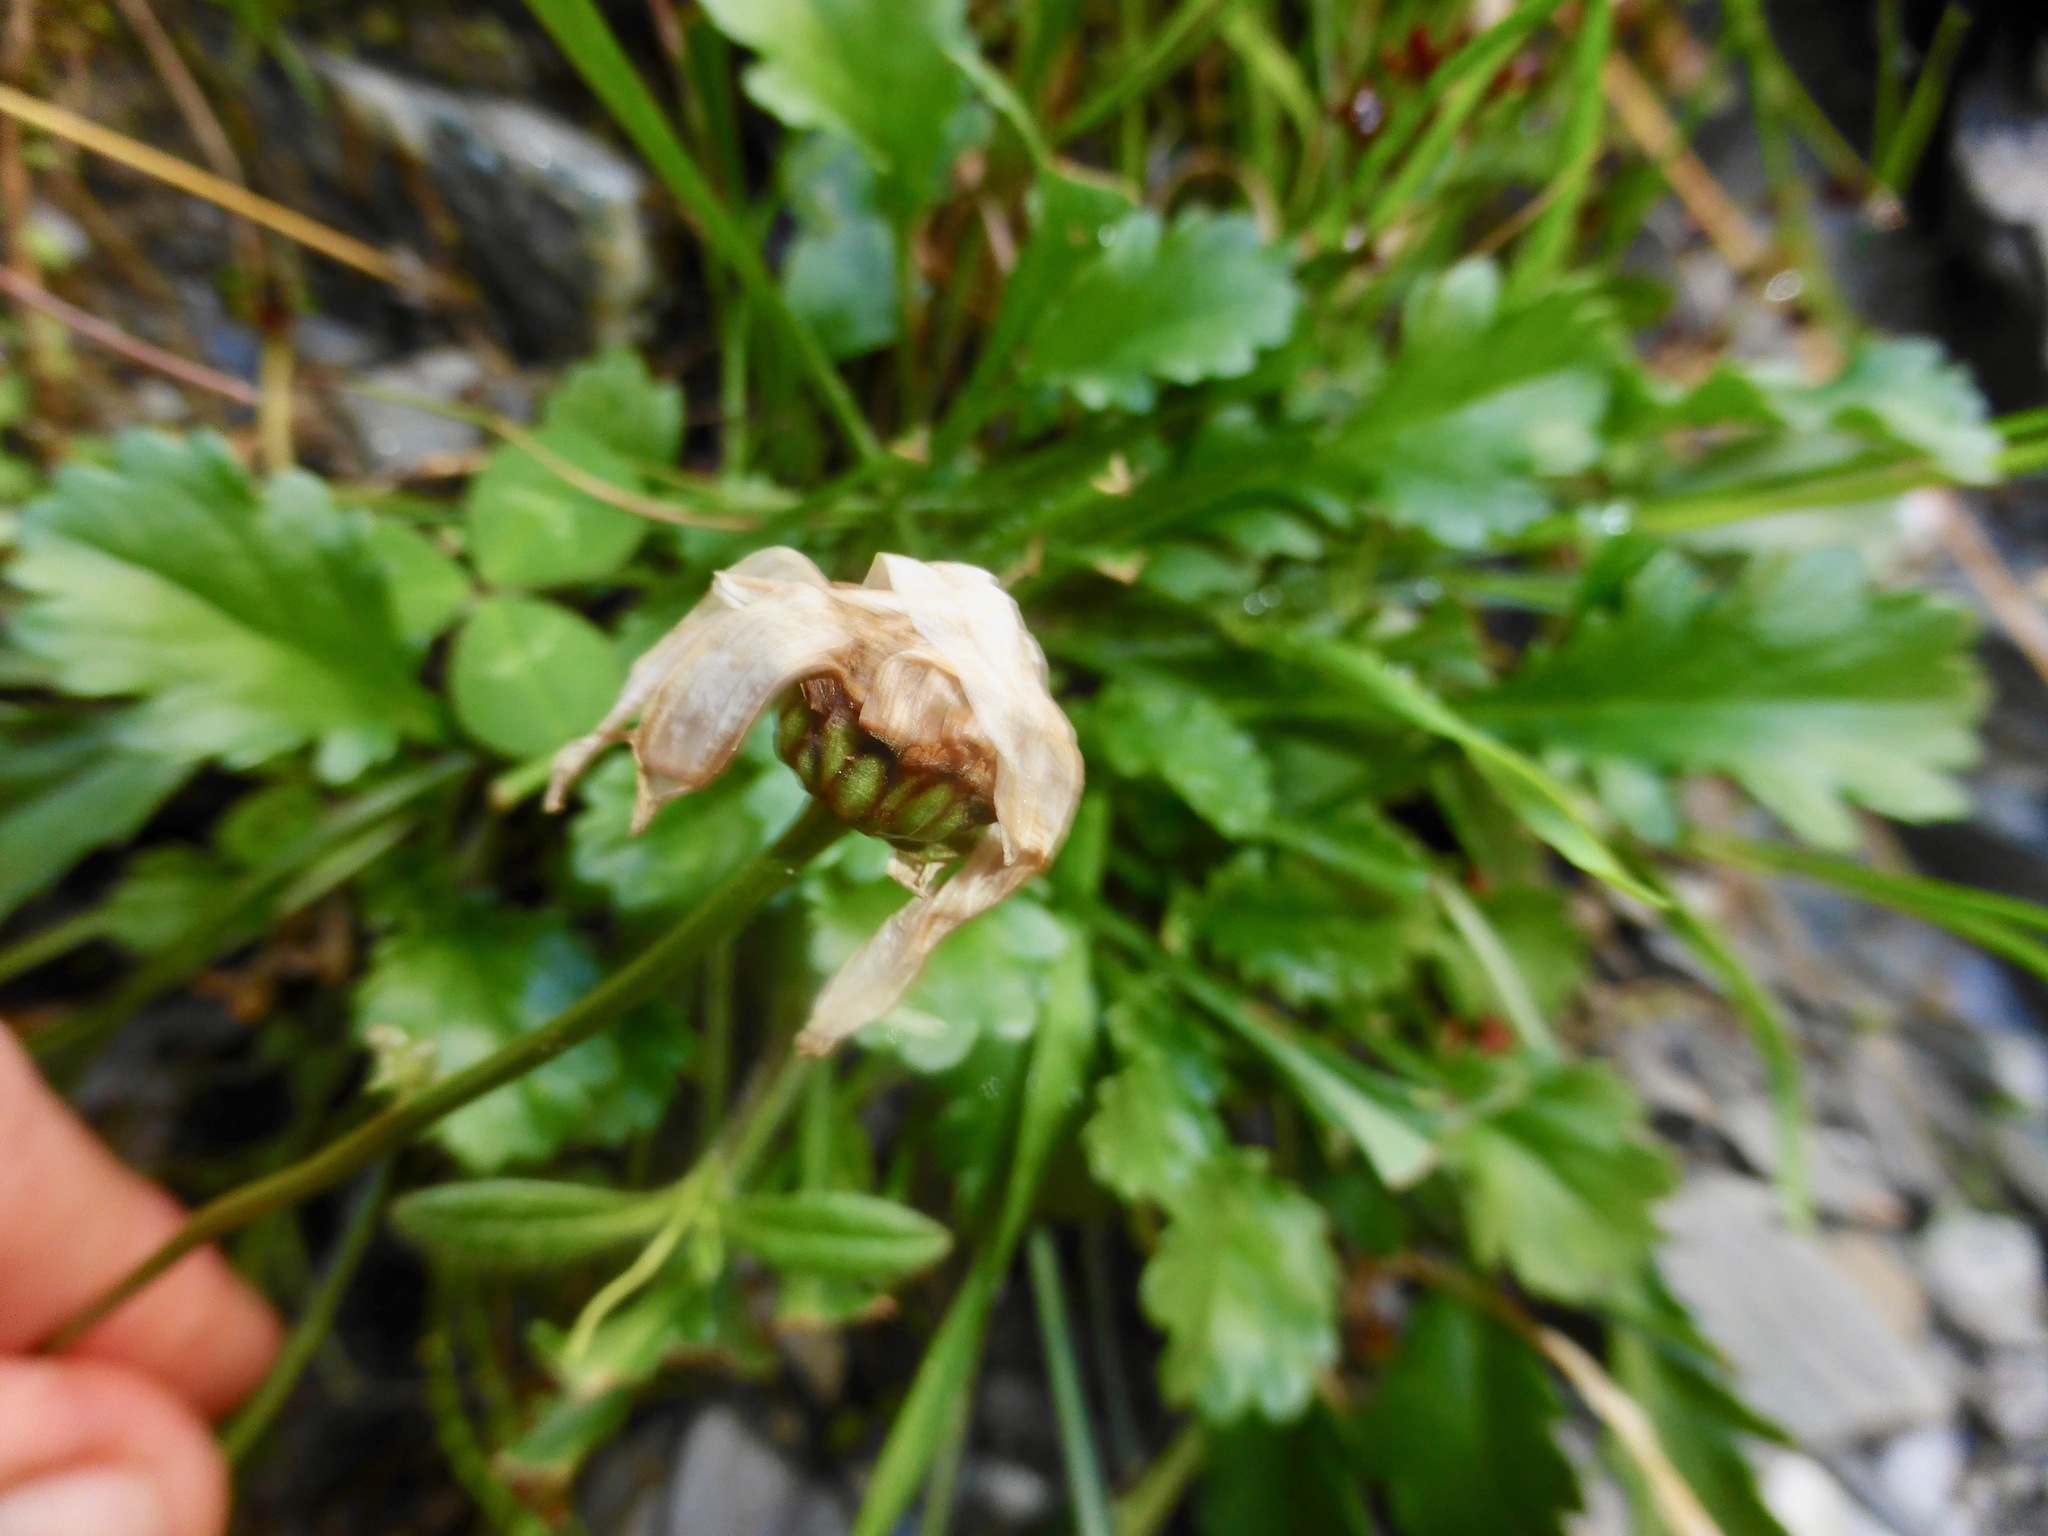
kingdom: Plantae
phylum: Tracheophyta
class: Magnoliopsida
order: Asterales
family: Asteraceae
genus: Leucanthemum
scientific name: Leucanthemum vulgare
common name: Oxeye daisy
